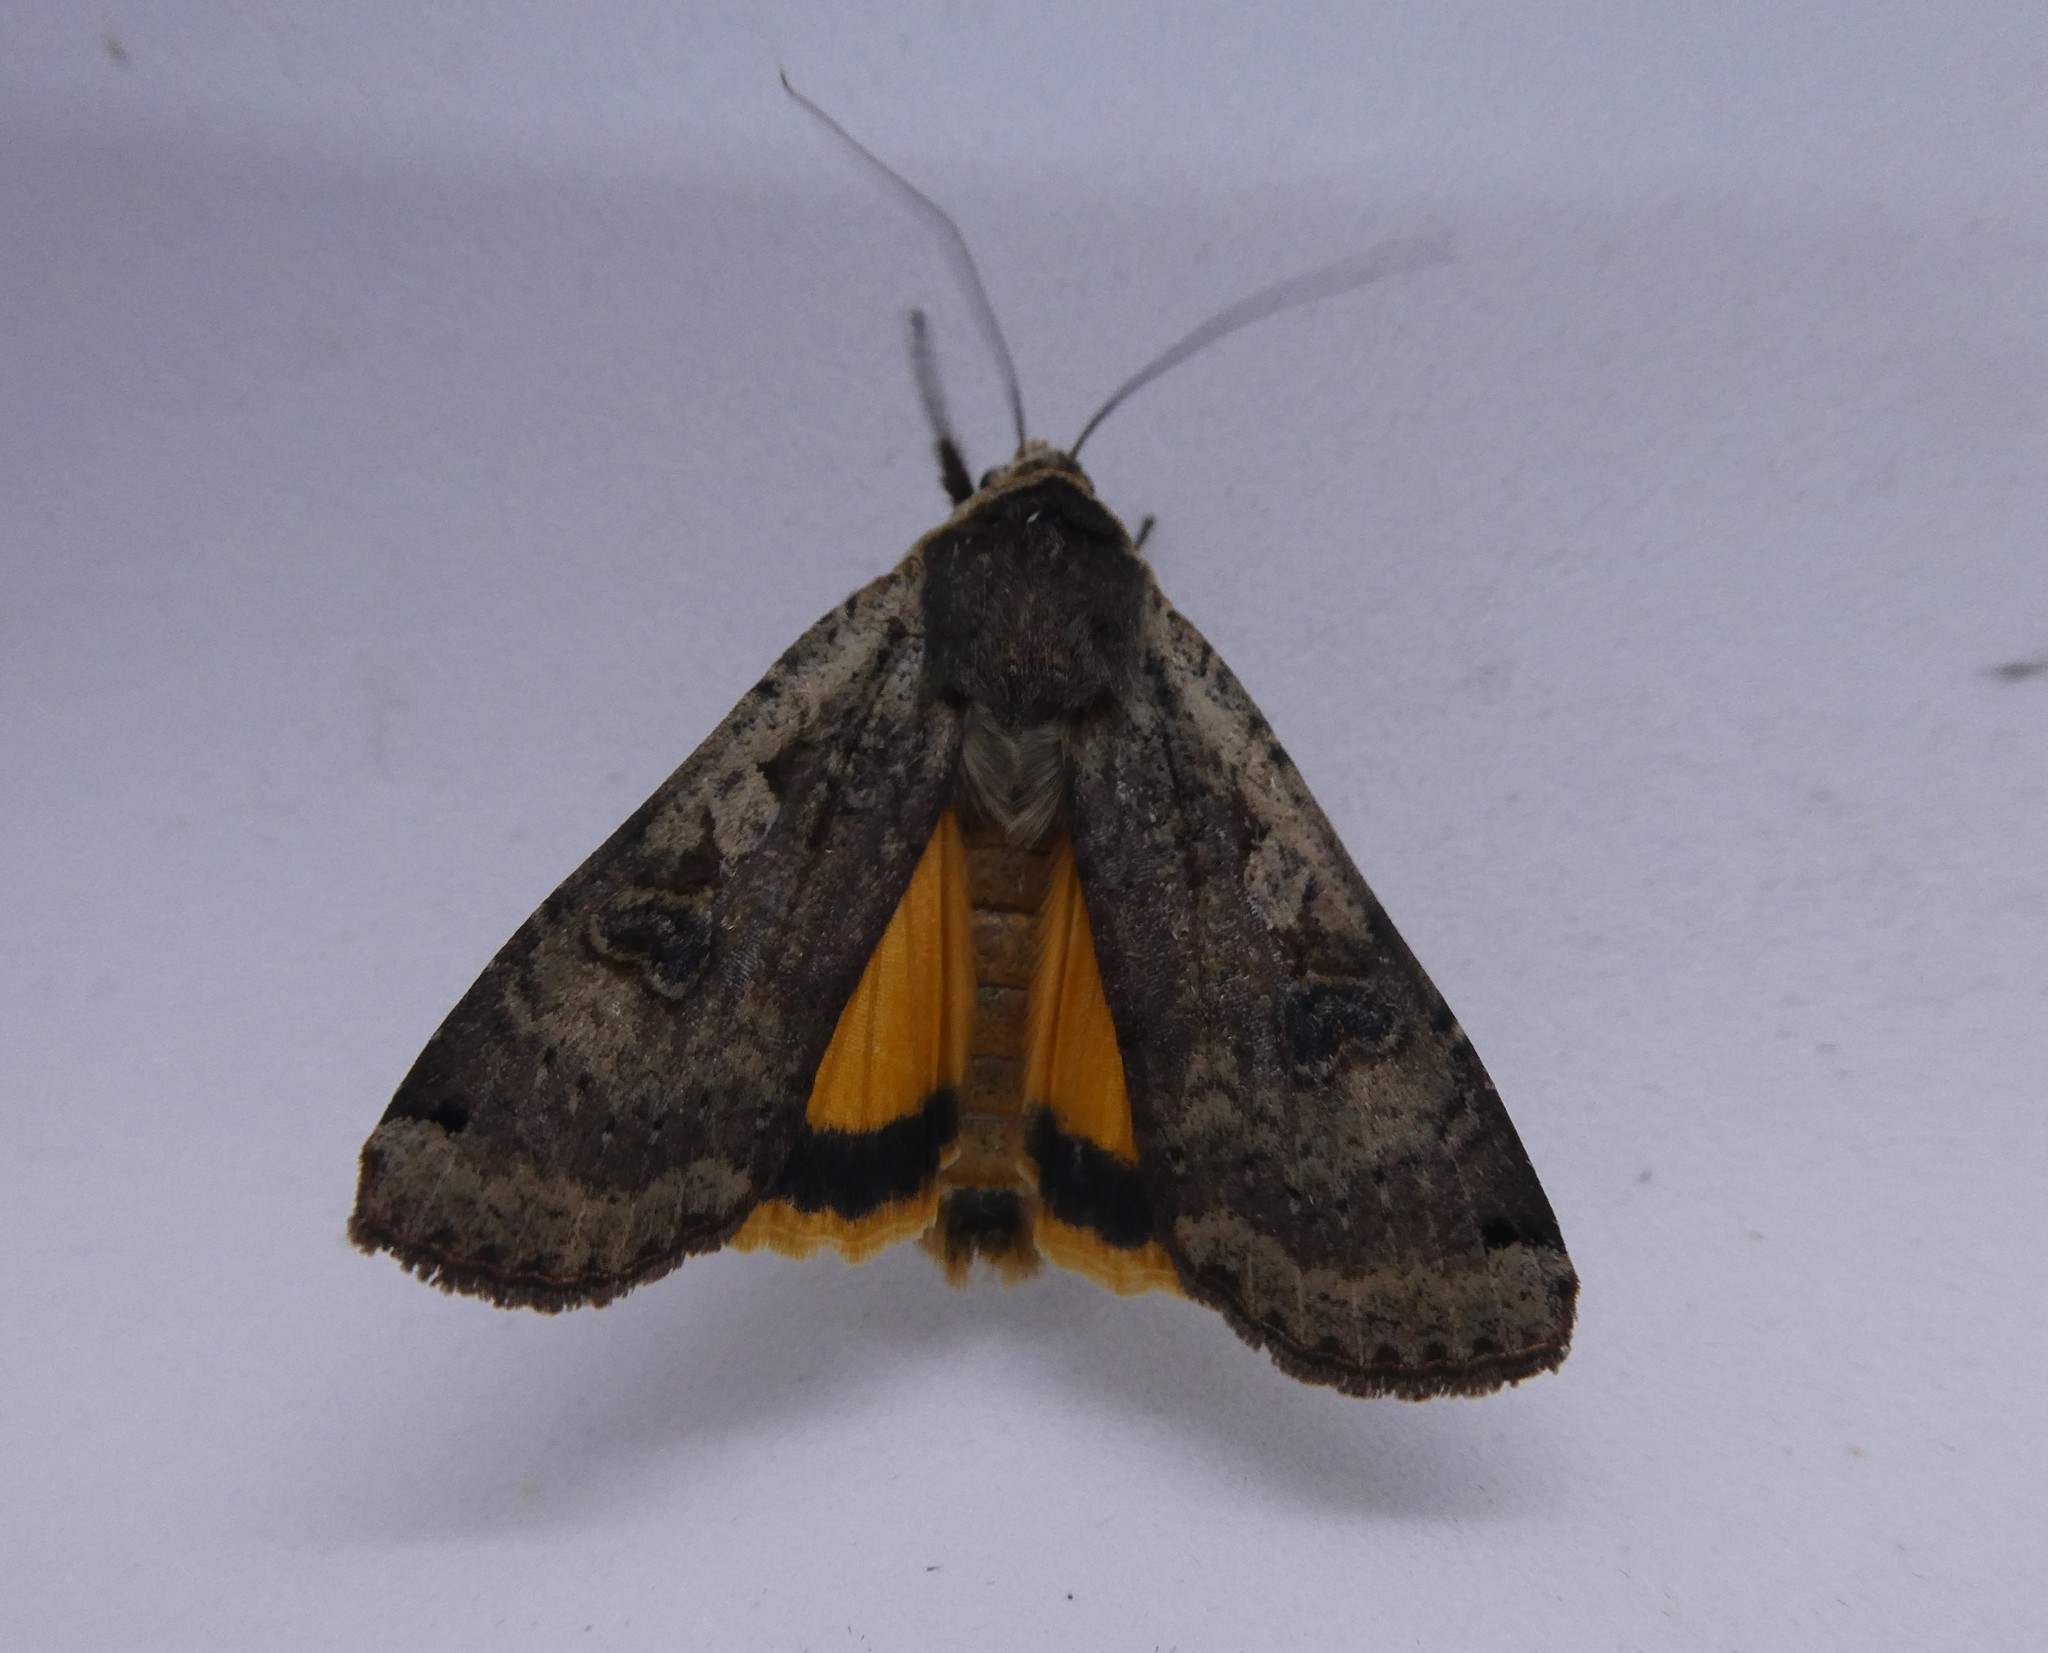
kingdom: Animalia
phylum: Arthropoda
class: Insecta
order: Lepidoptera
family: Noctuidae
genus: Noctua
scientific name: Noctua pronuba
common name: Large yellow underwing
